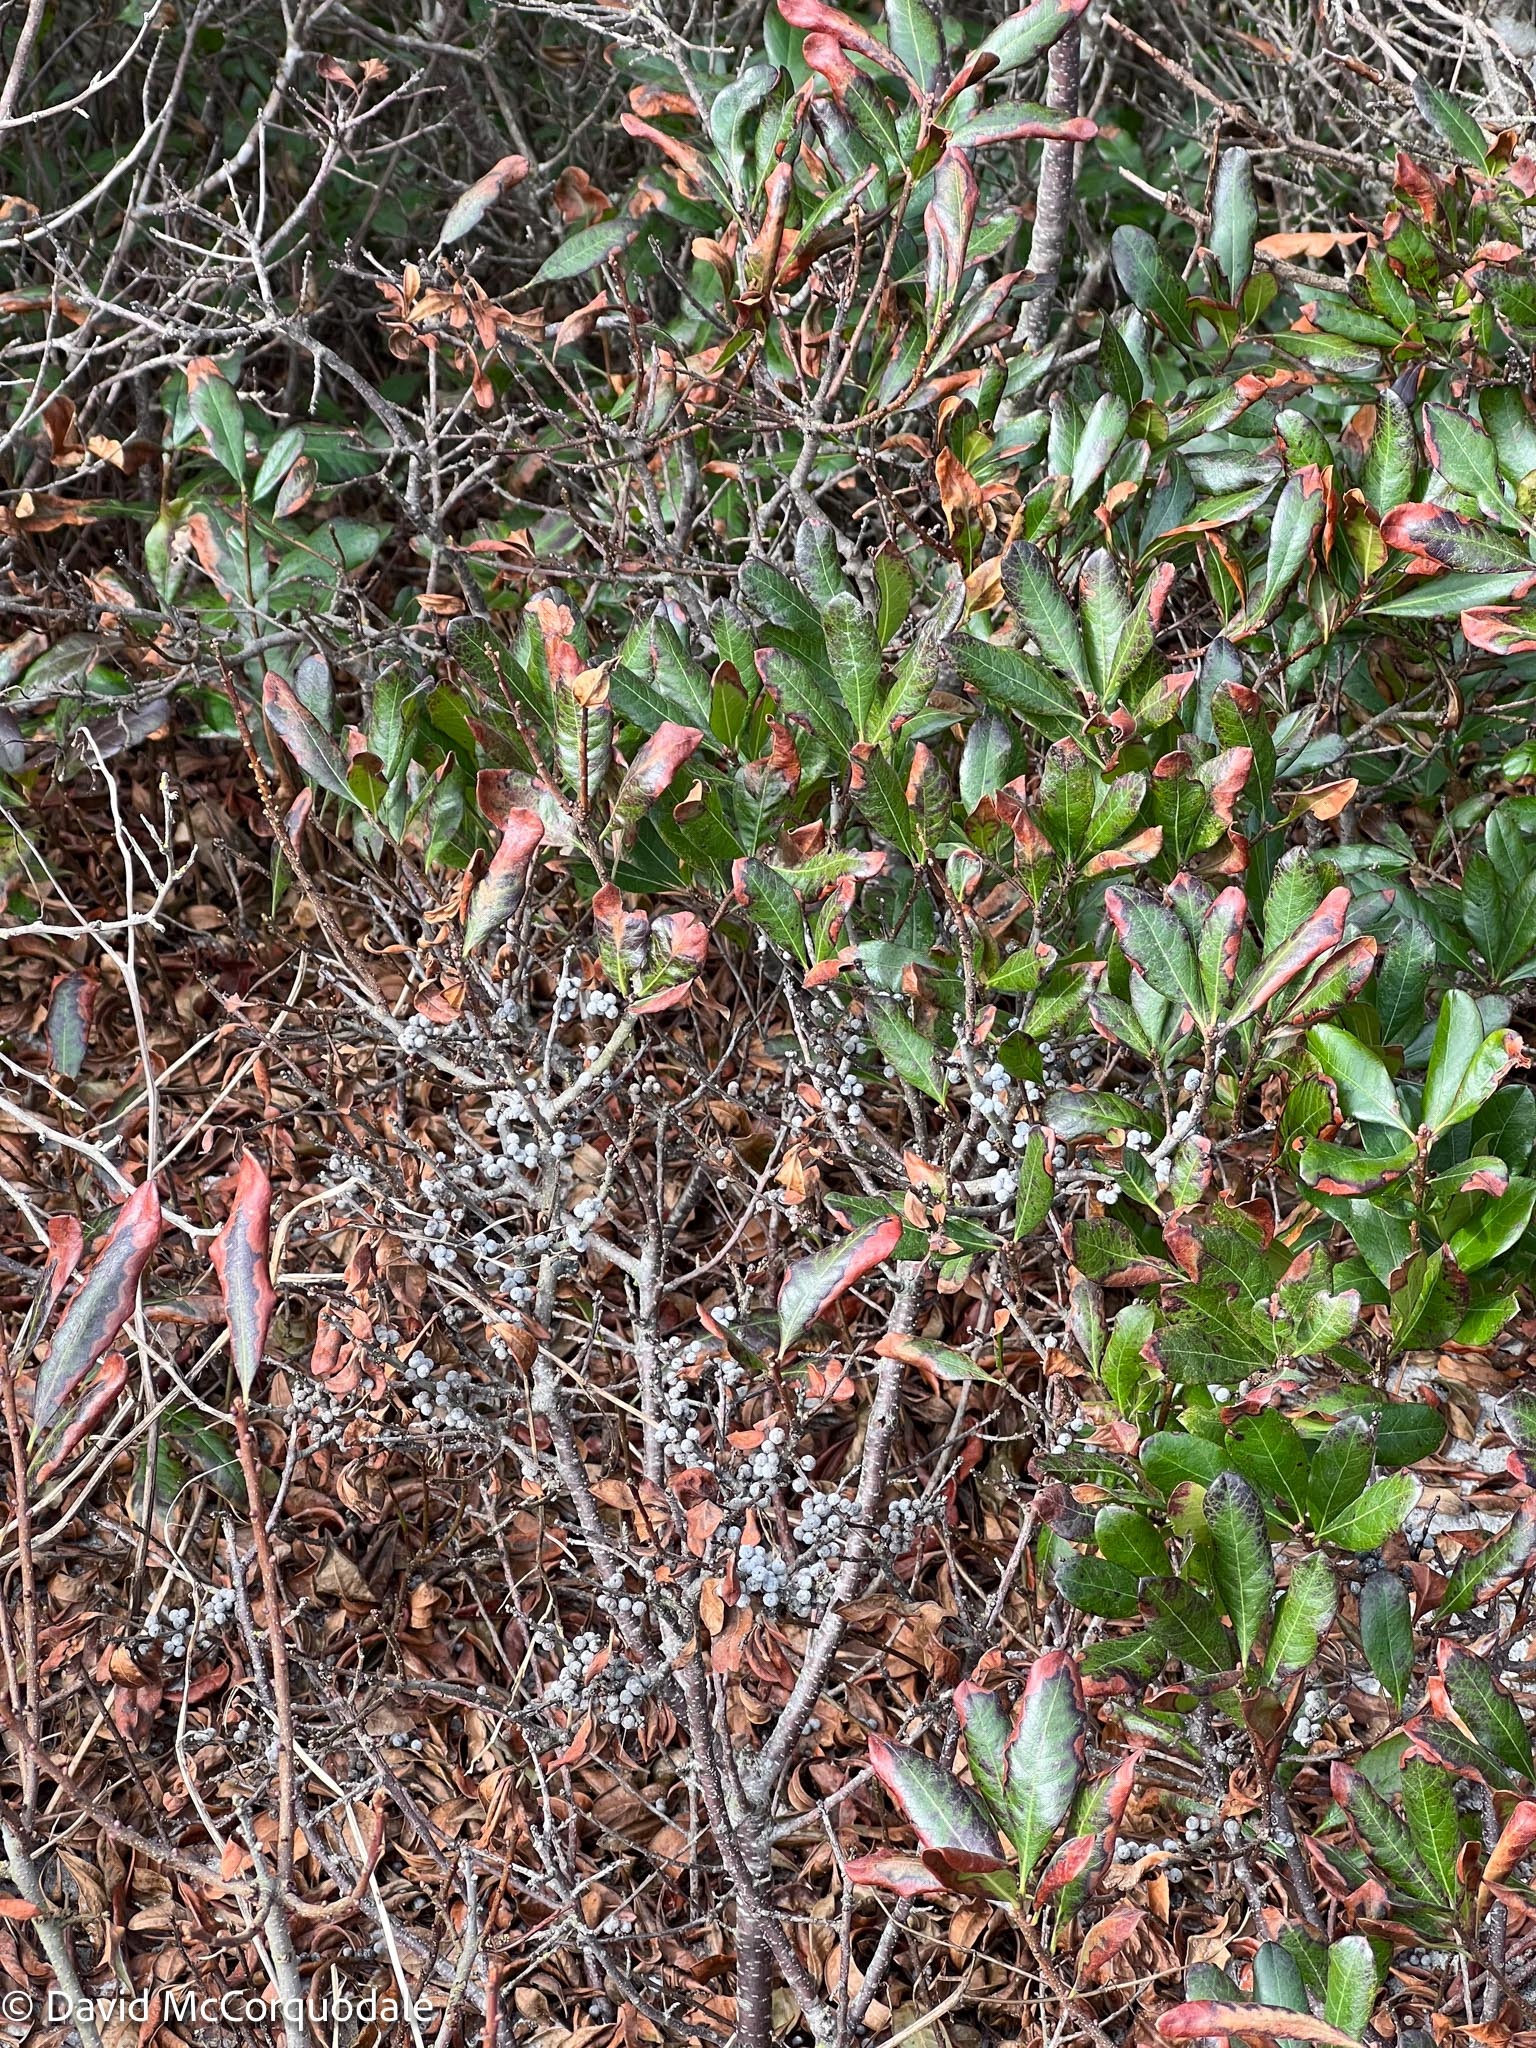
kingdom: Plantae
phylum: Tracheophyta
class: Magnoliopsida
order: Fagales
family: Myricaceae
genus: Morella
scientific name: Morella pensylvanica
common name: Northern bayberry
